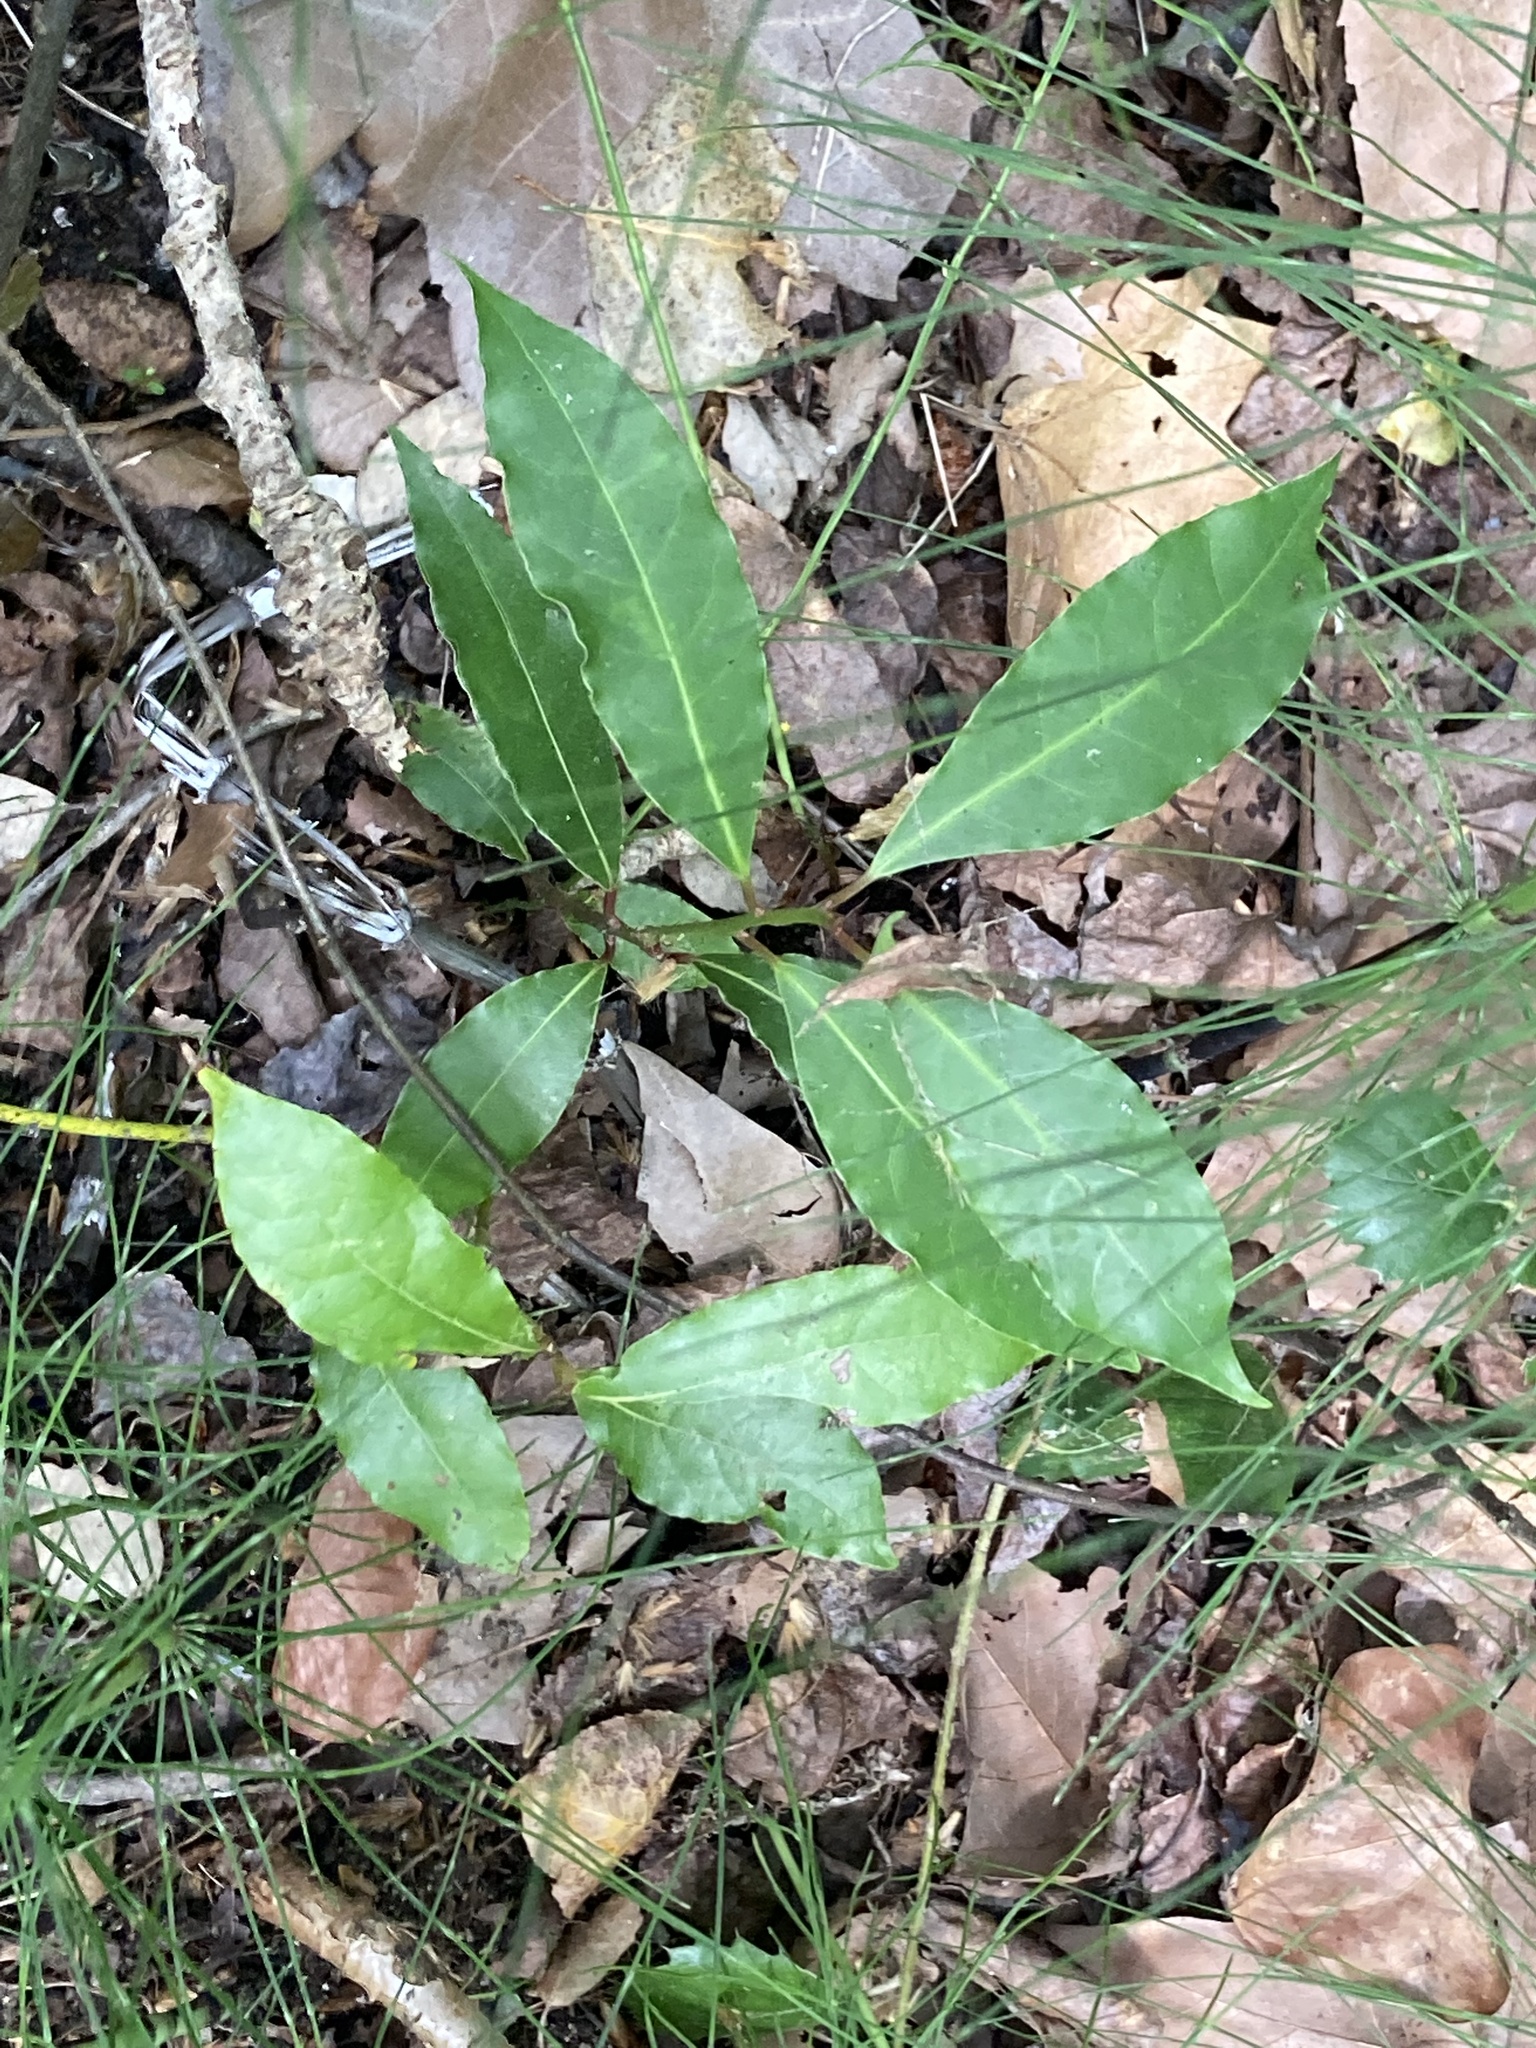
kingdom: Plantae
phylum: Tracheophyta
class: Magnoliopsida
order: Laurales
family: Lauraceae
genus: Laurus
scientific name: Laurus nobilis
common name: Bay
